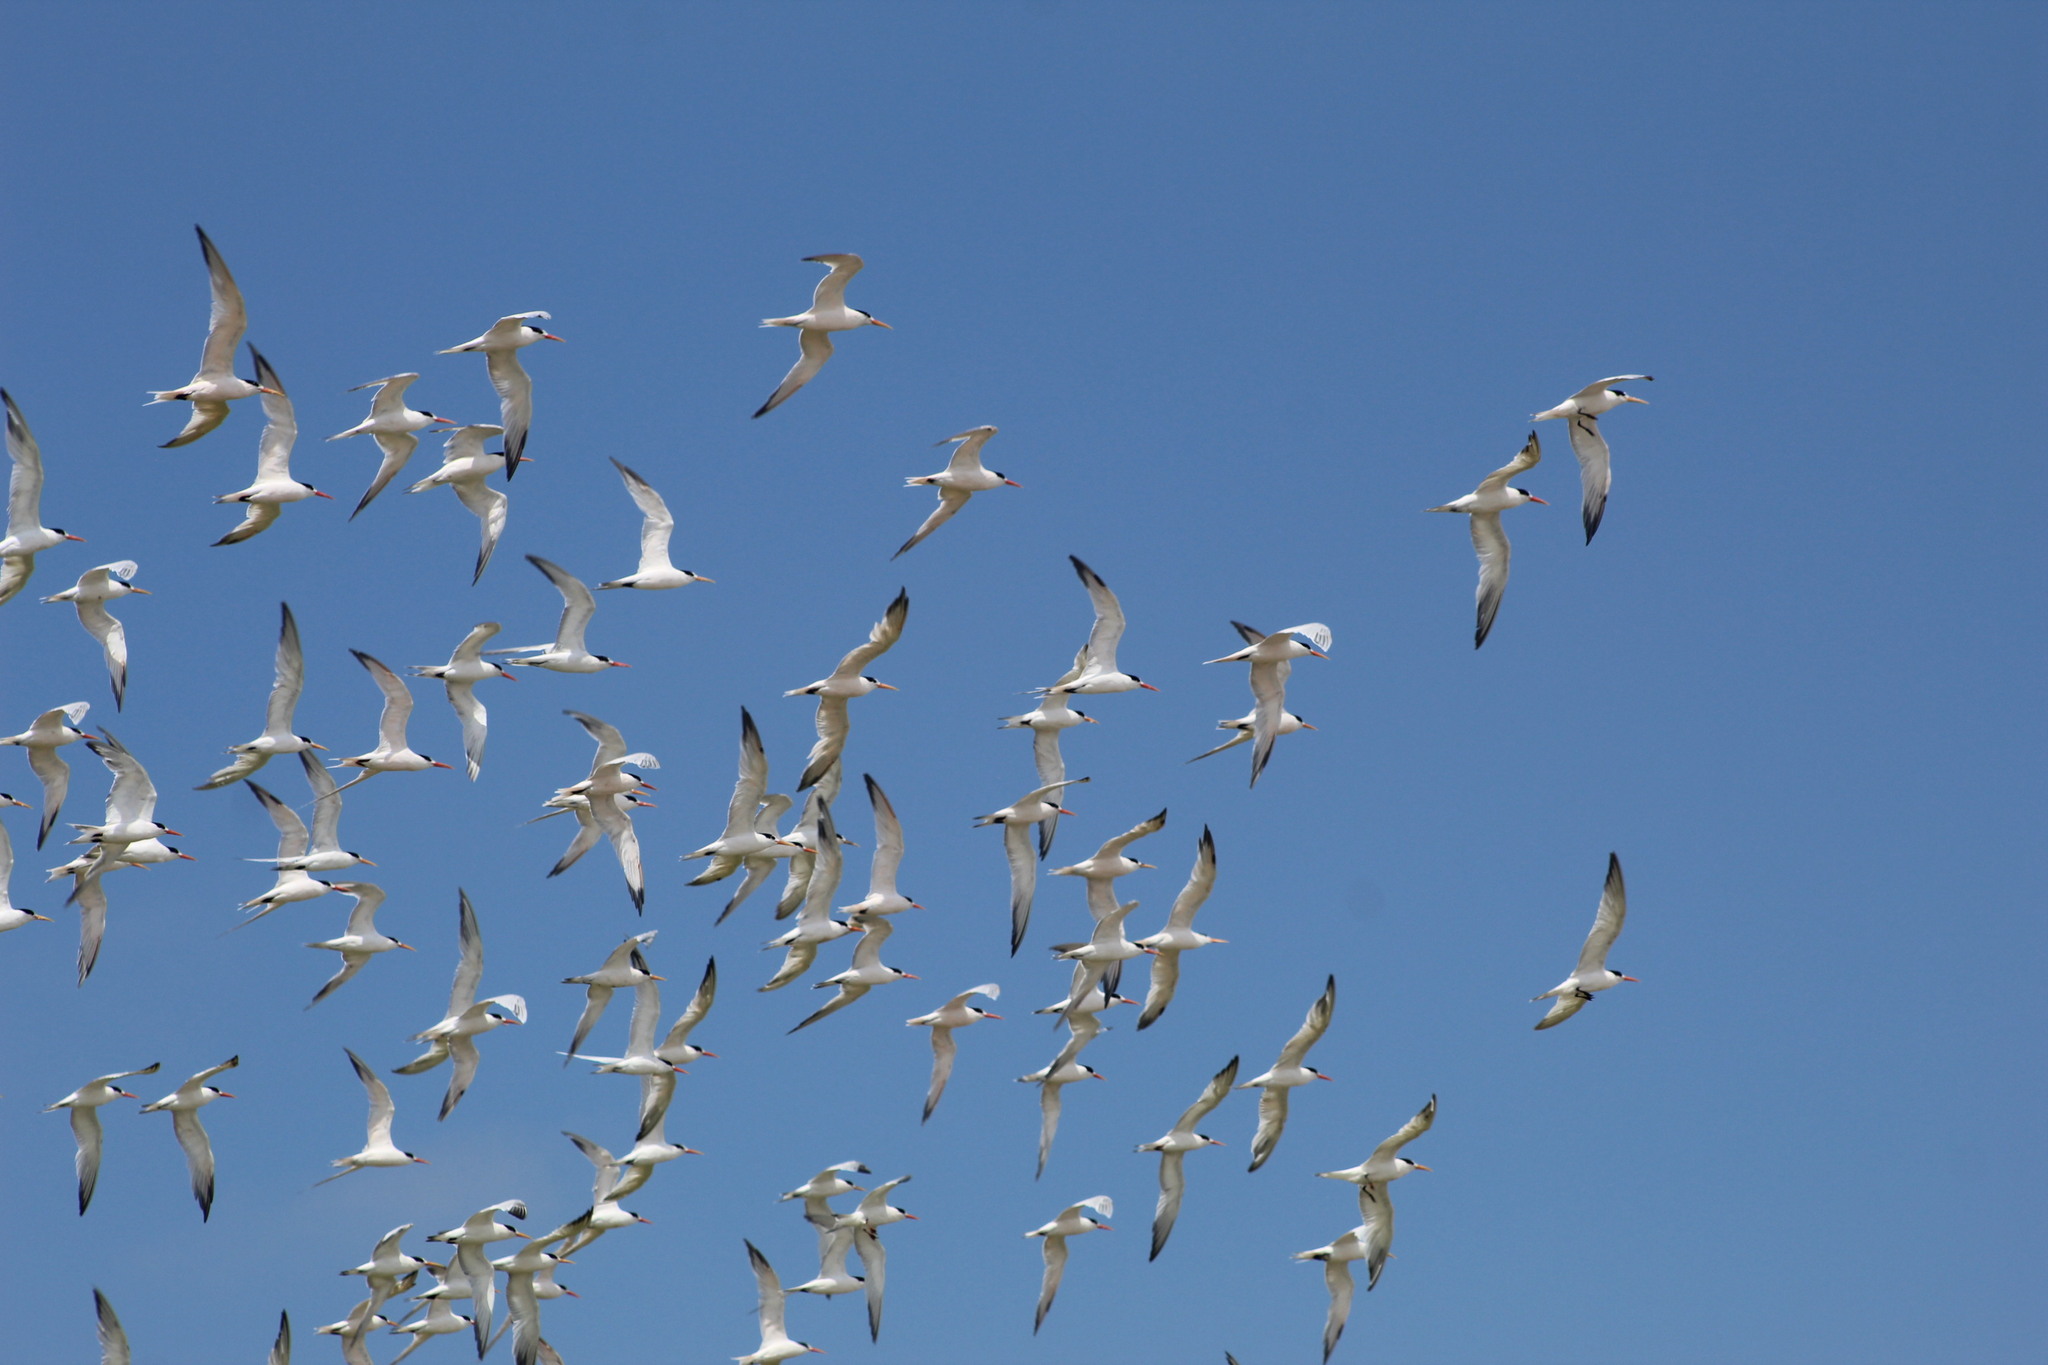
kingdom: Animalia
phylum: Chordata
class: Aves
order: Charadriiformes
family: Laridae
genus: Thalasseus
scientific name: Thalasseus elegans
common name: Elegant tern
